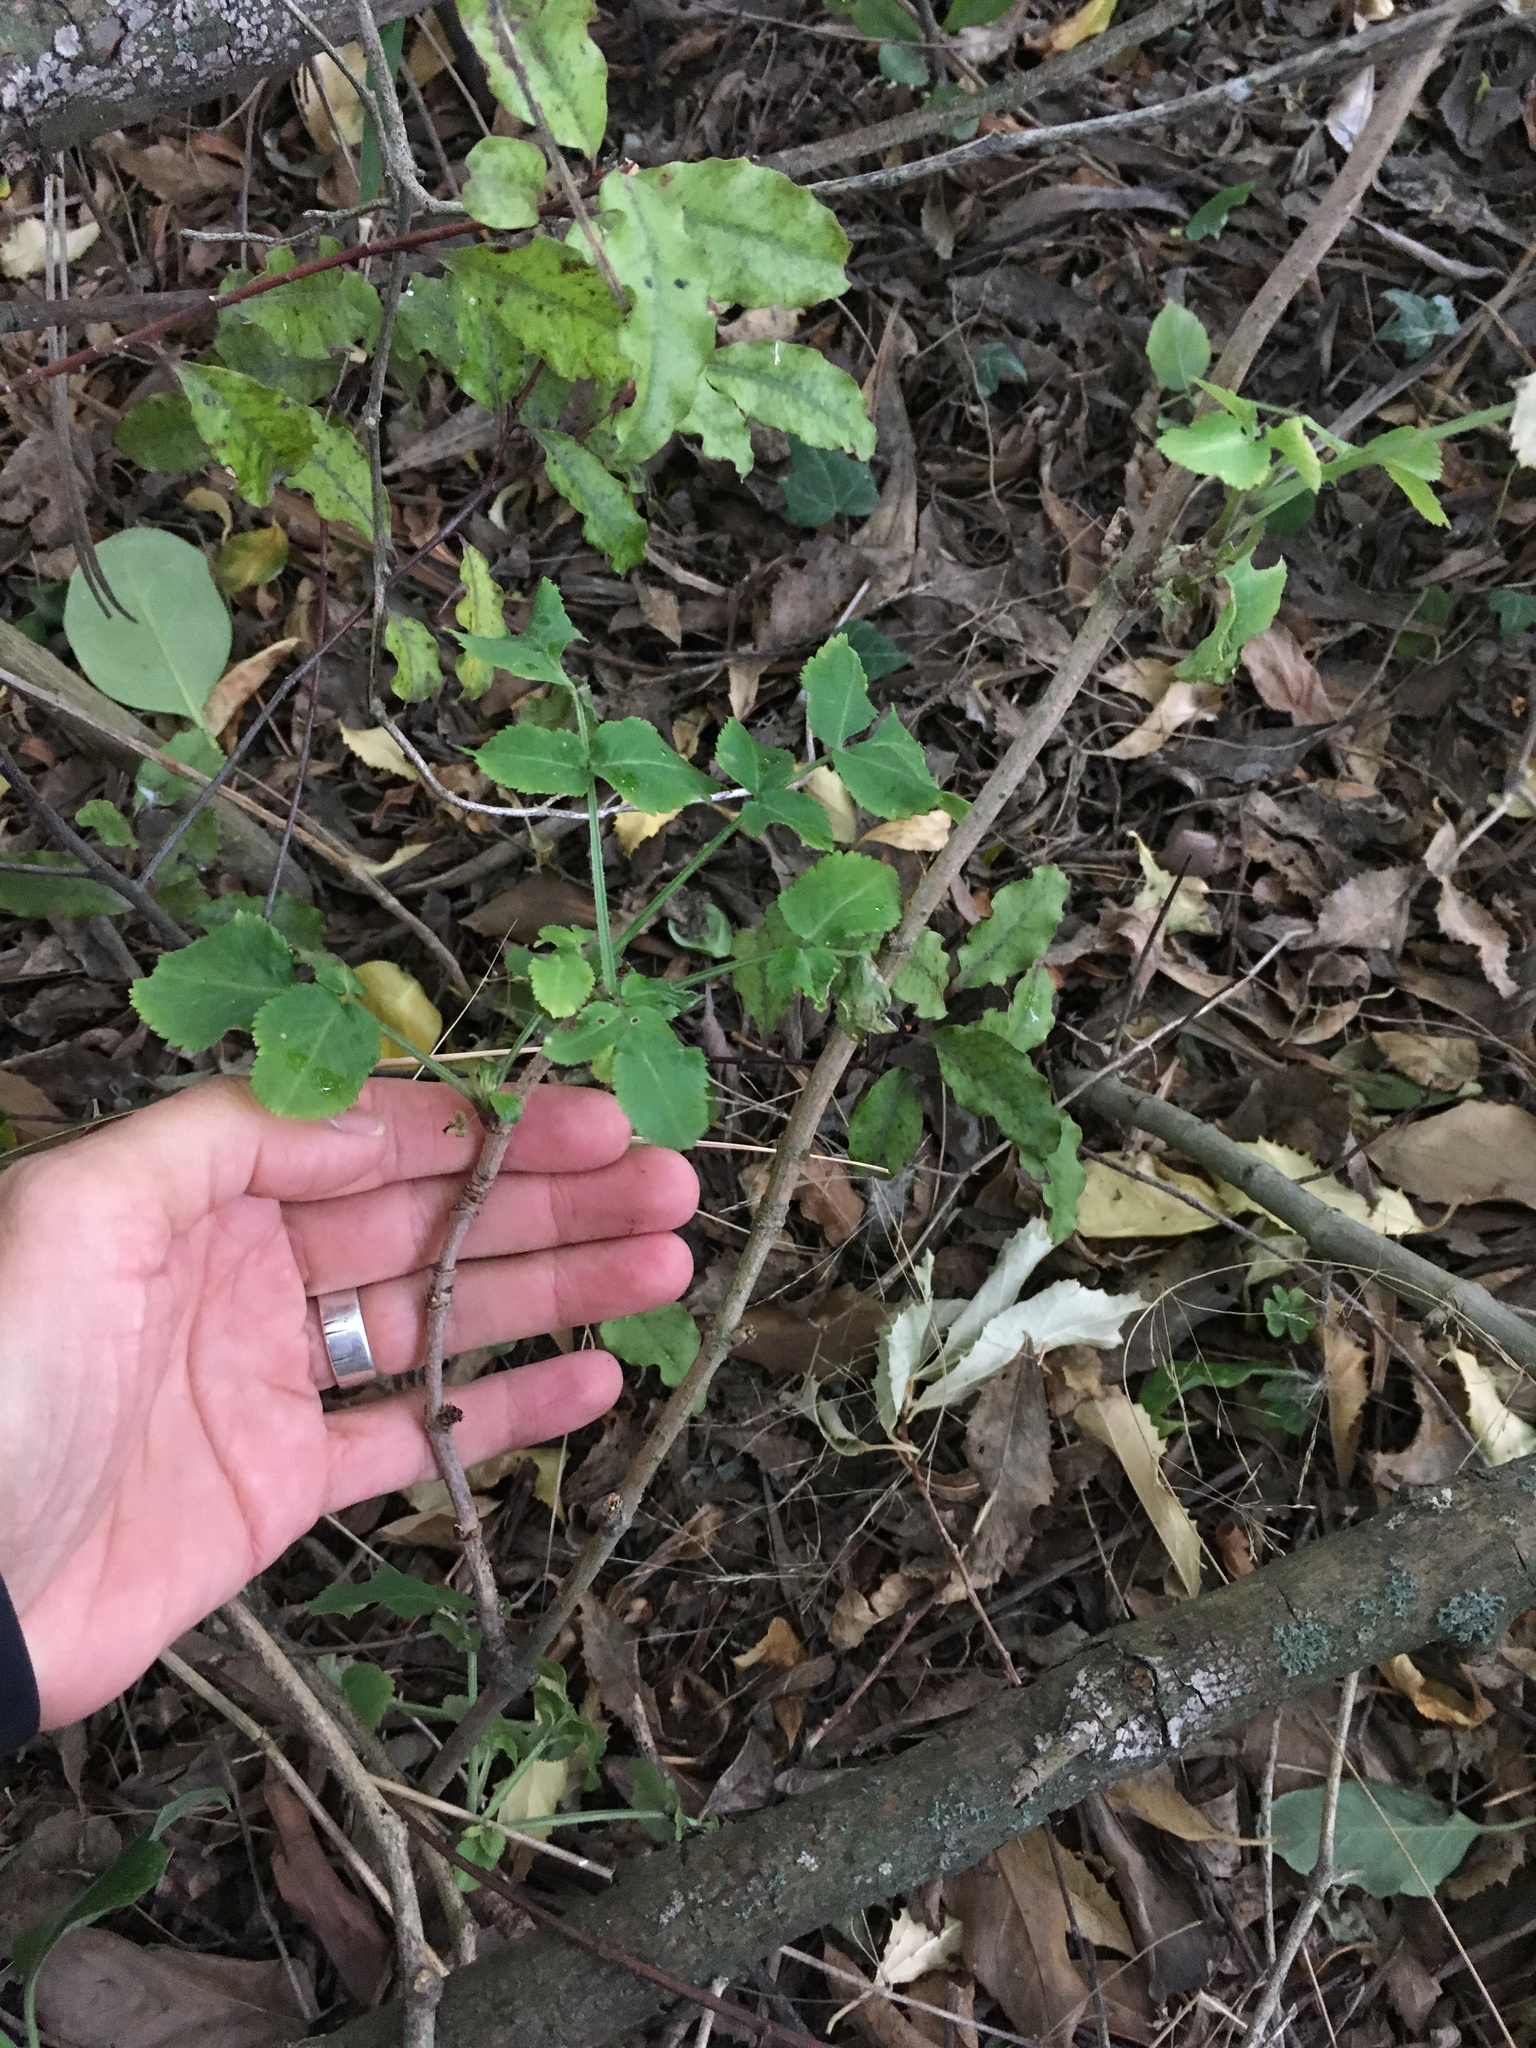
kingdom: Plantae
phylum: Tracheophyta
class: Magnoliopsida
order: Dipsacales
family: Viburnaceae
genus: Sambucus
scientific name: Sambucus nigra
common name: Elder
